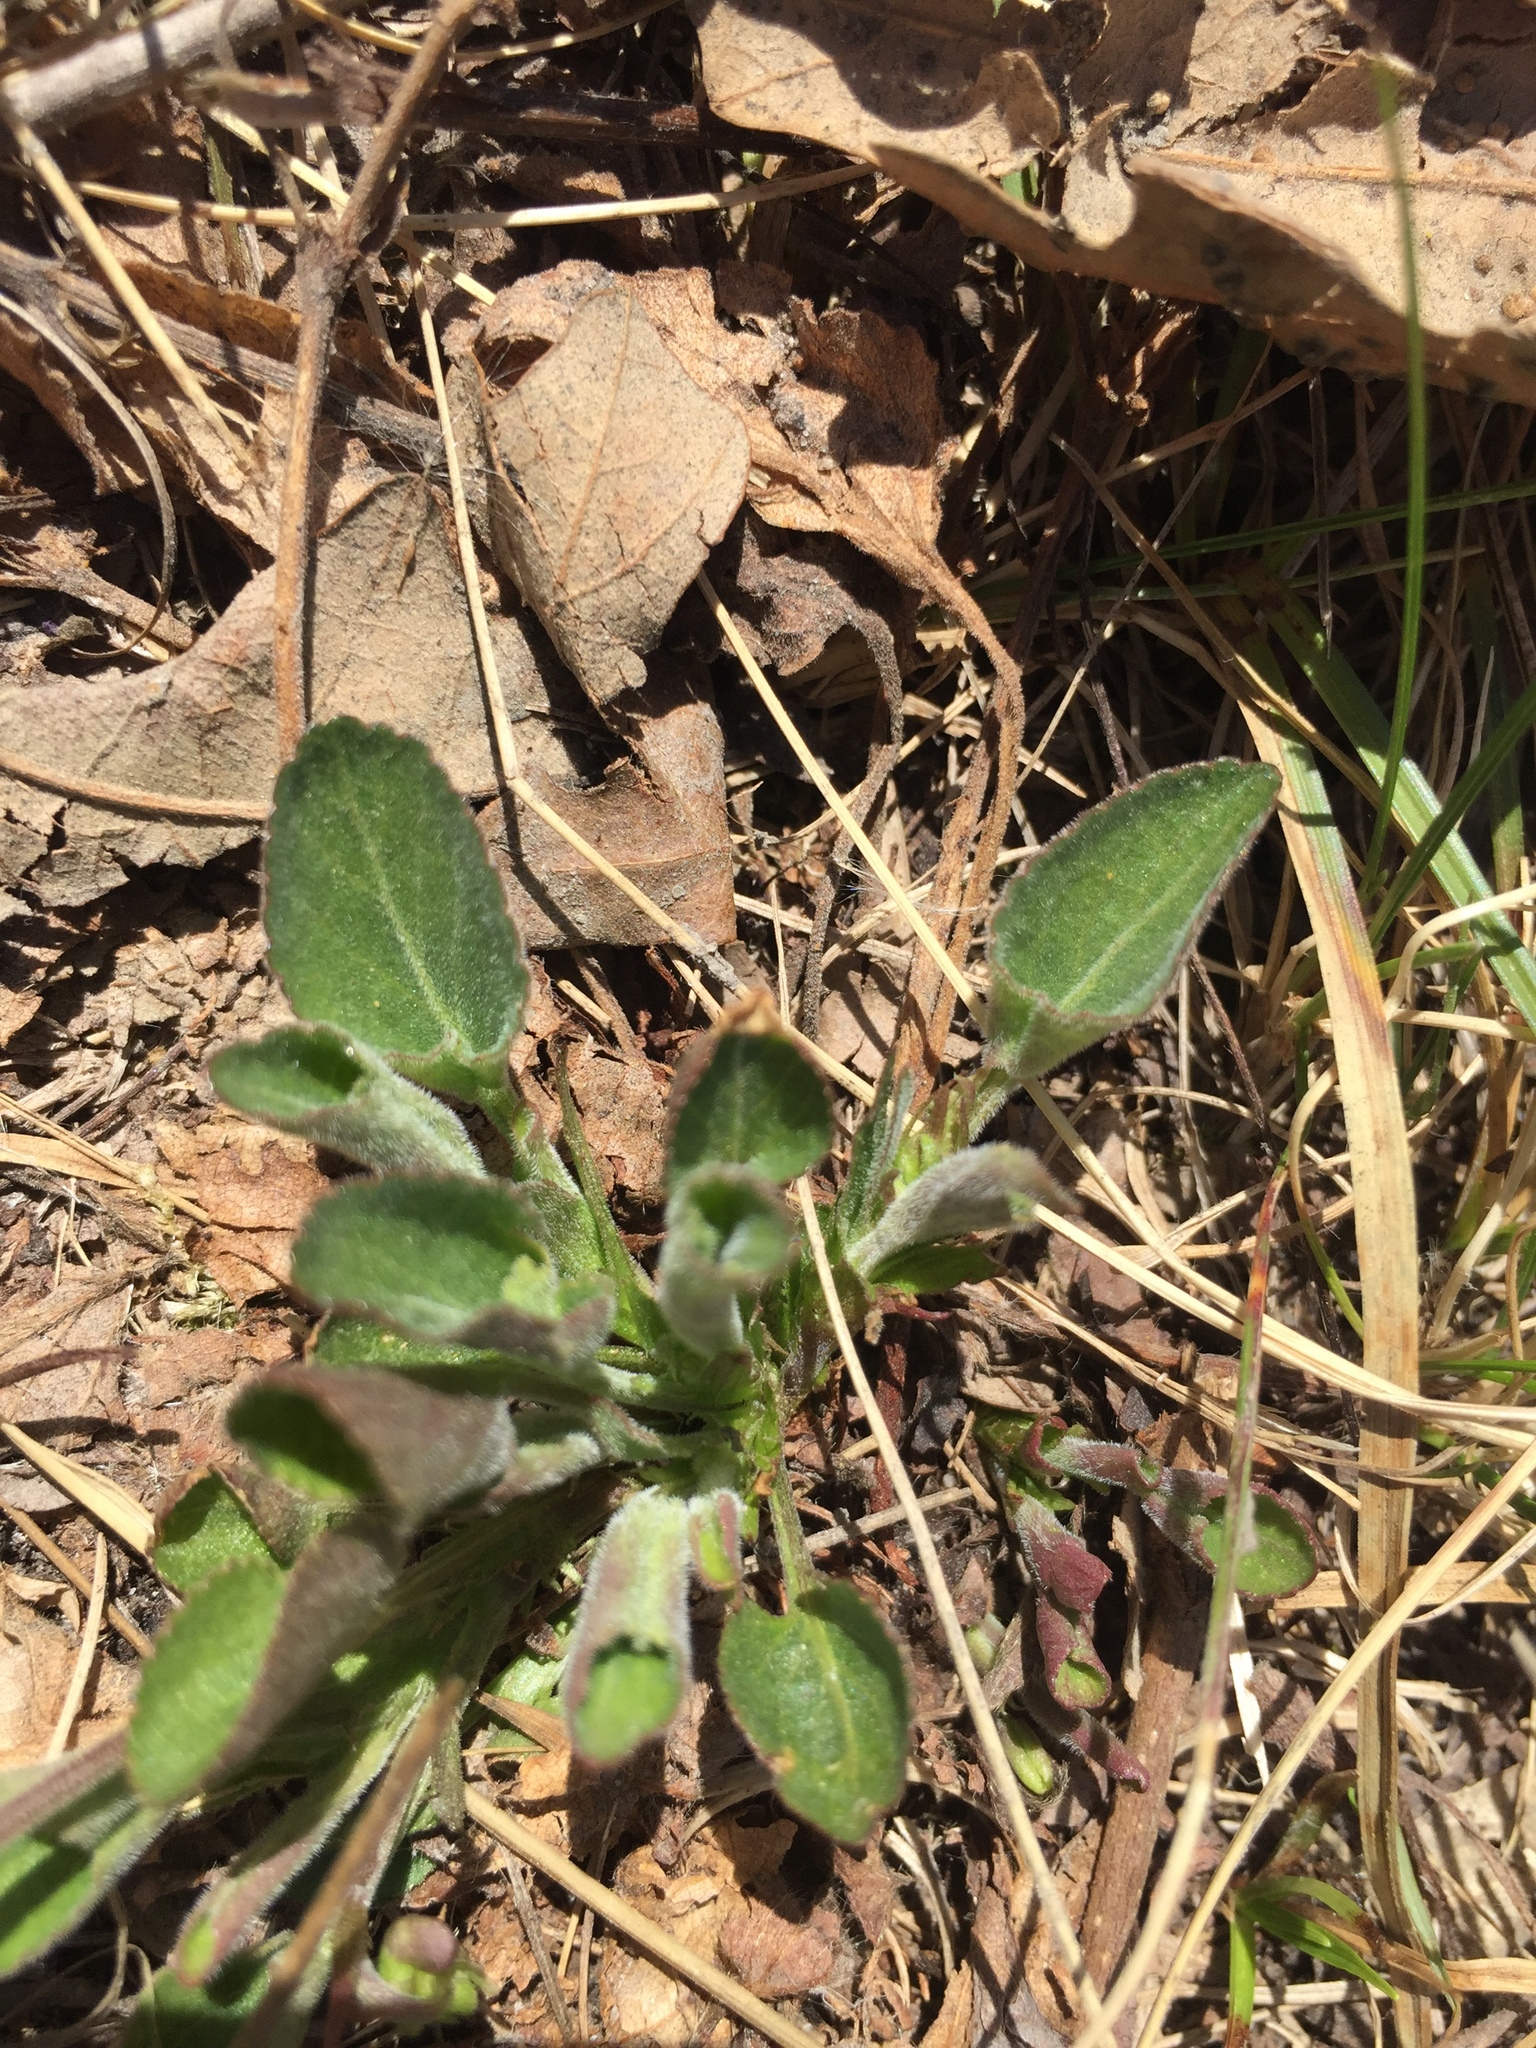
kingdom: Plantae
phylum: Tracheophyta
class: Magnoliopsida
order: Malpighiales
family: Violaceae
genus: Viola
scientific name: Viola adunca
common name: Sand violet
